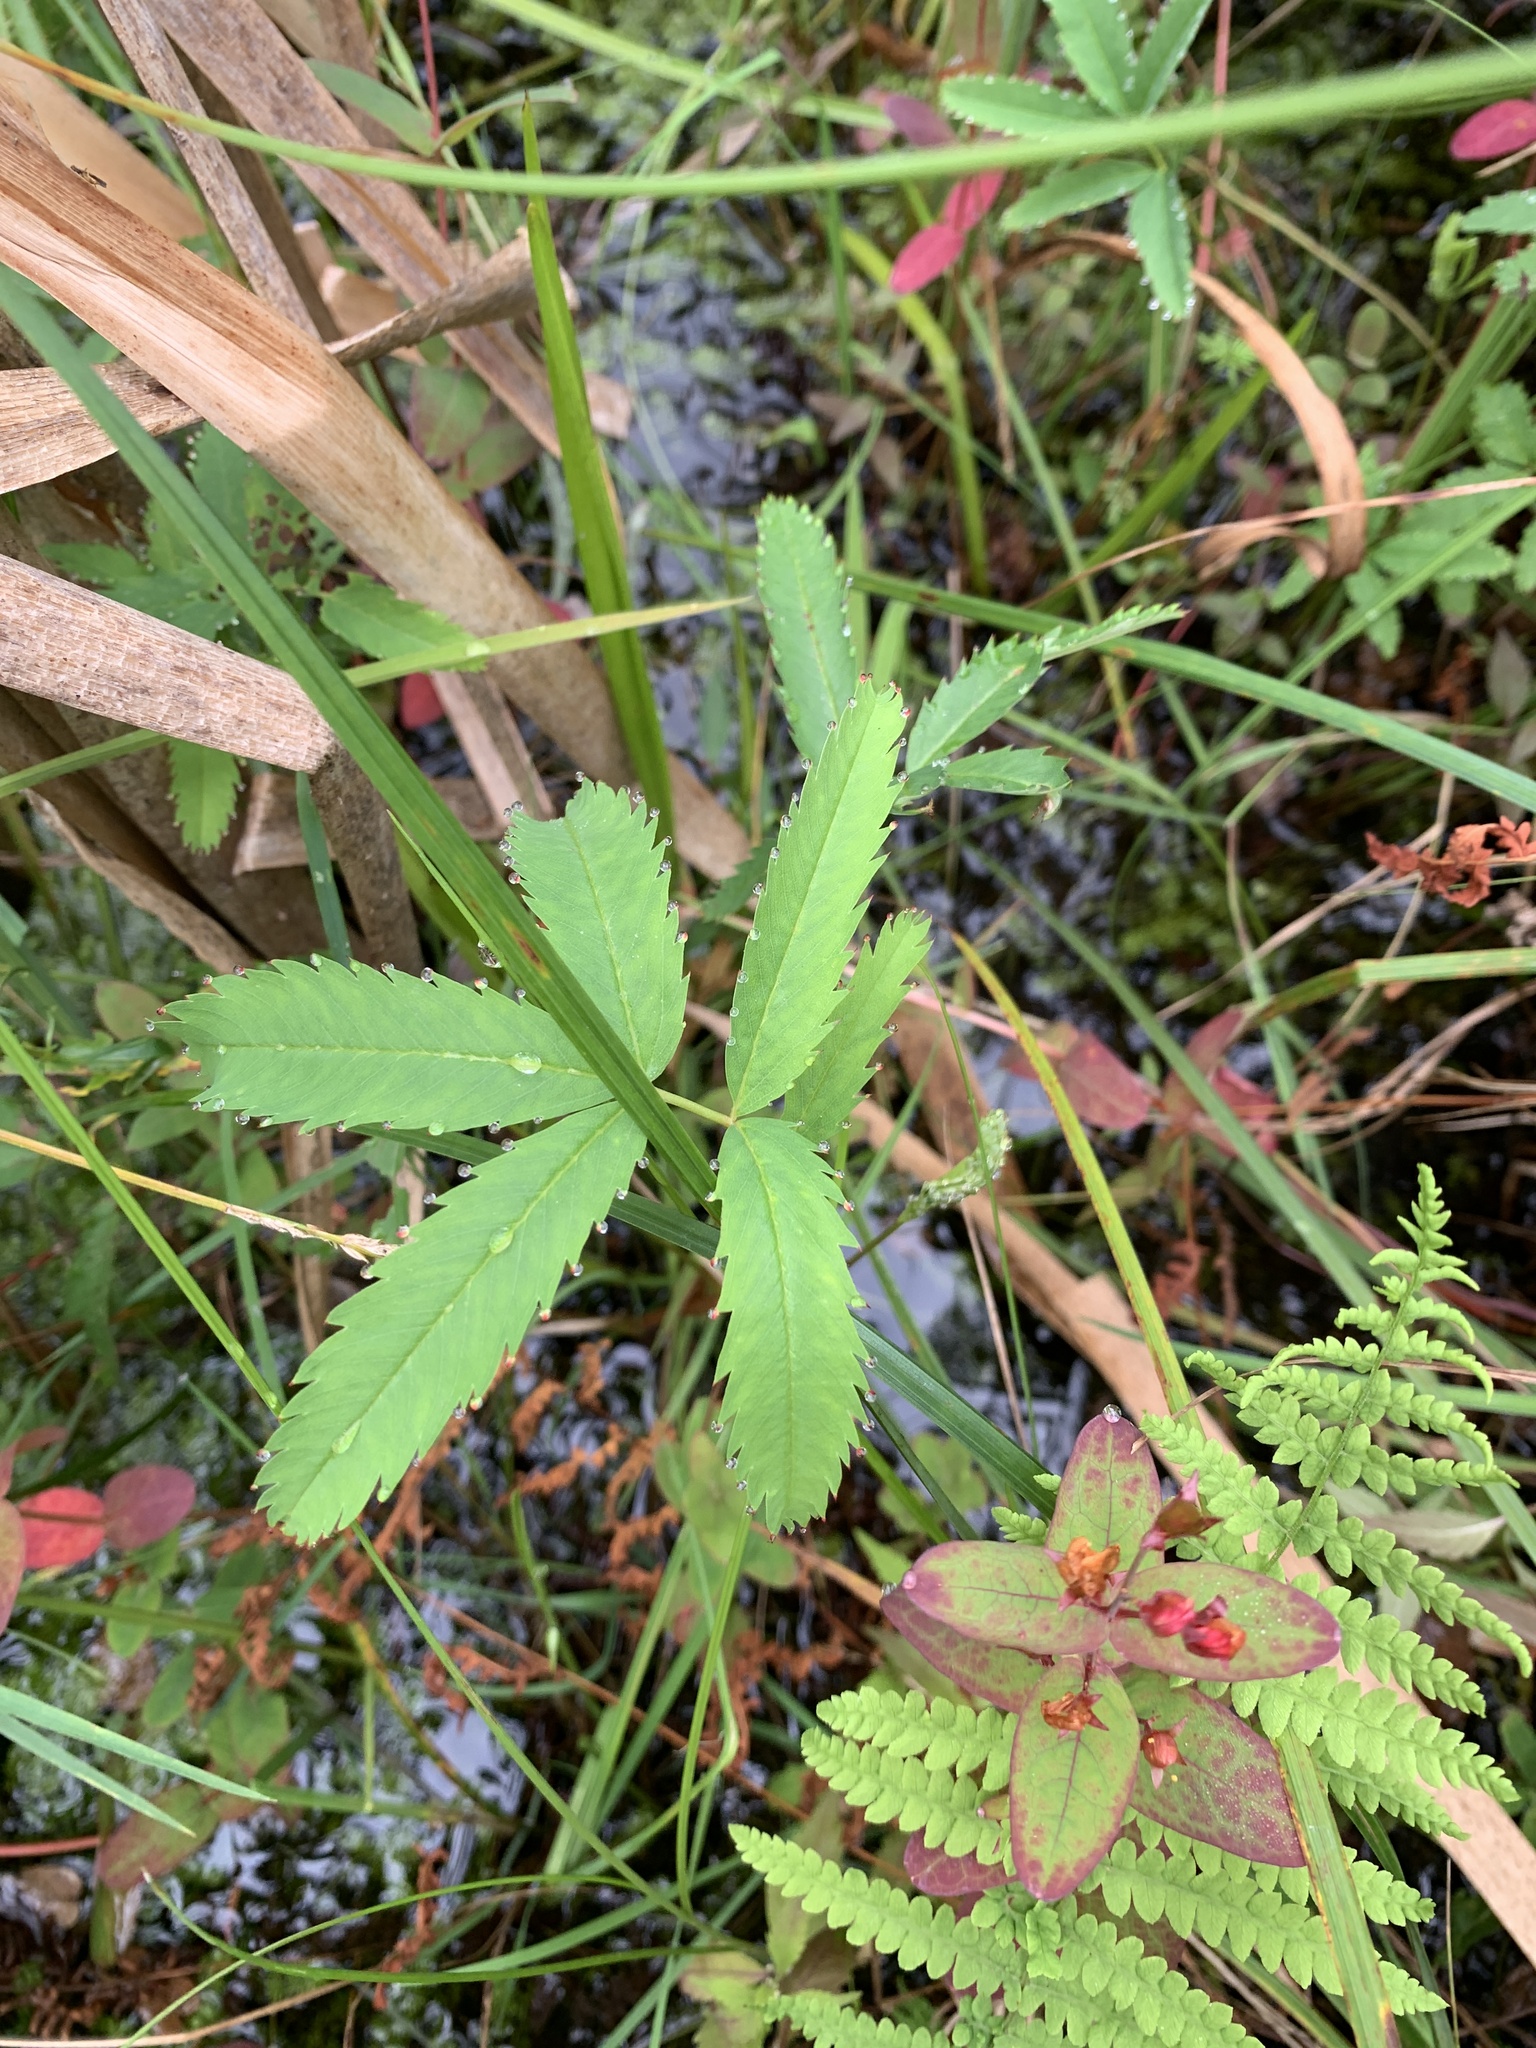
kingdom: Plantae
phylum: Tracheophyta
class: Magnoliopsida
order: Rosales
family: Rosaceae
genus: Comarum
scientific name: Comarum palustre
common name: Marsh cinquefoil
